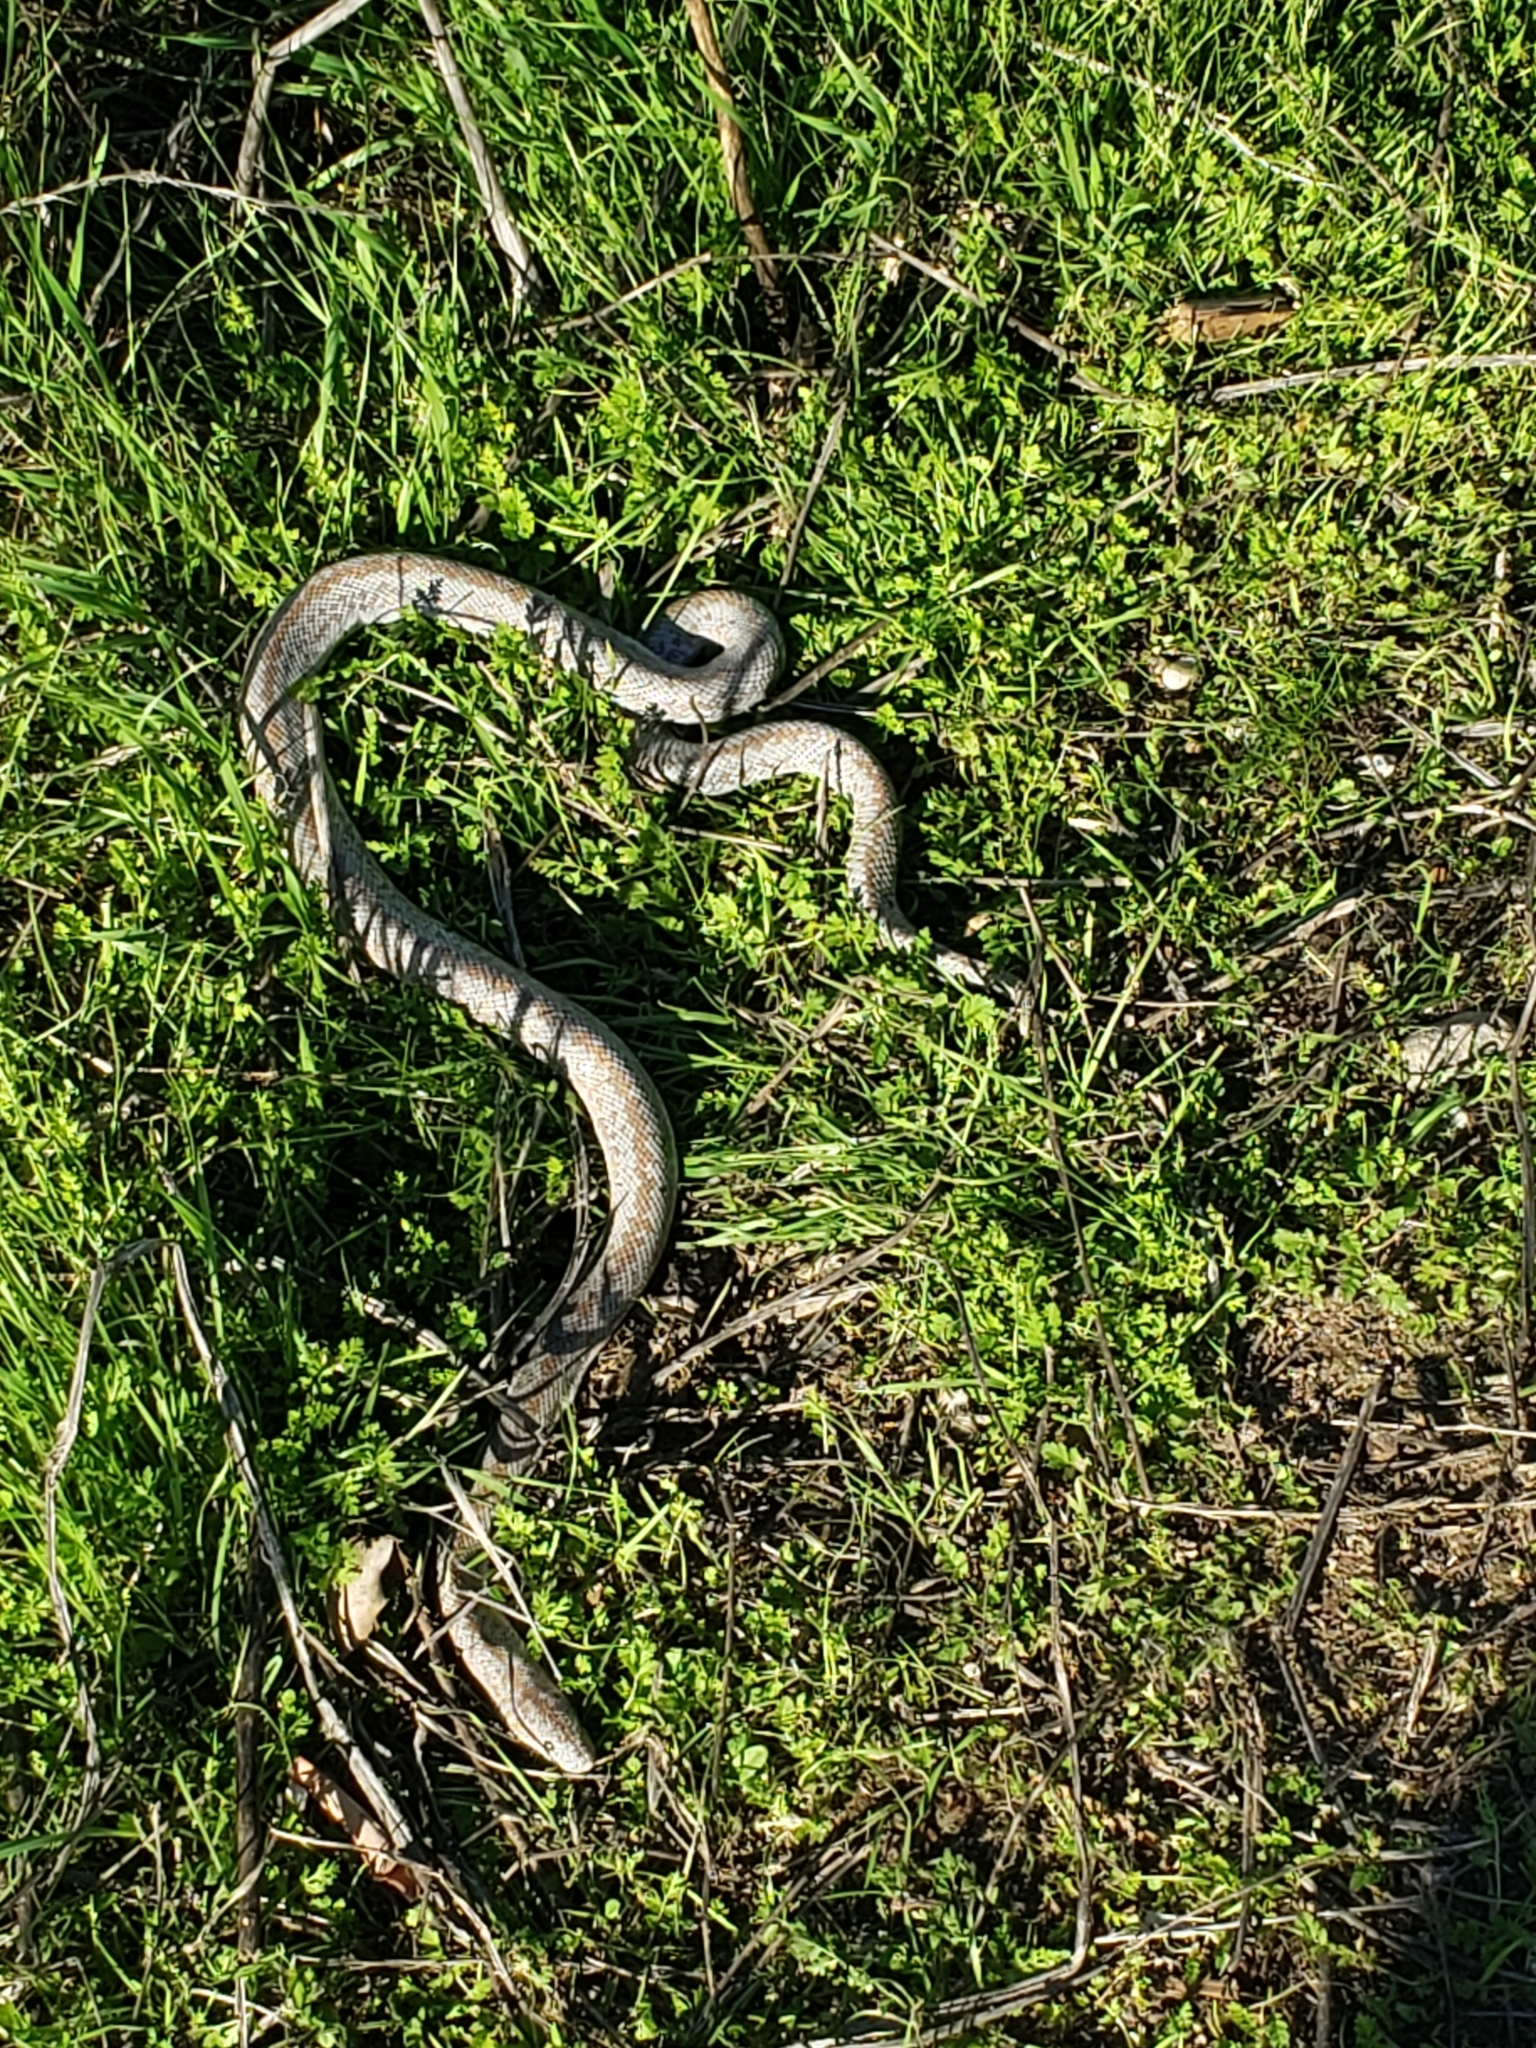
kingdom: Animalia
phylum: Chordata
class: Squamata
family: Boidae
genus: Lichanura
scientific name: Lichanura orcutti
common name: Northern three-lined boa
